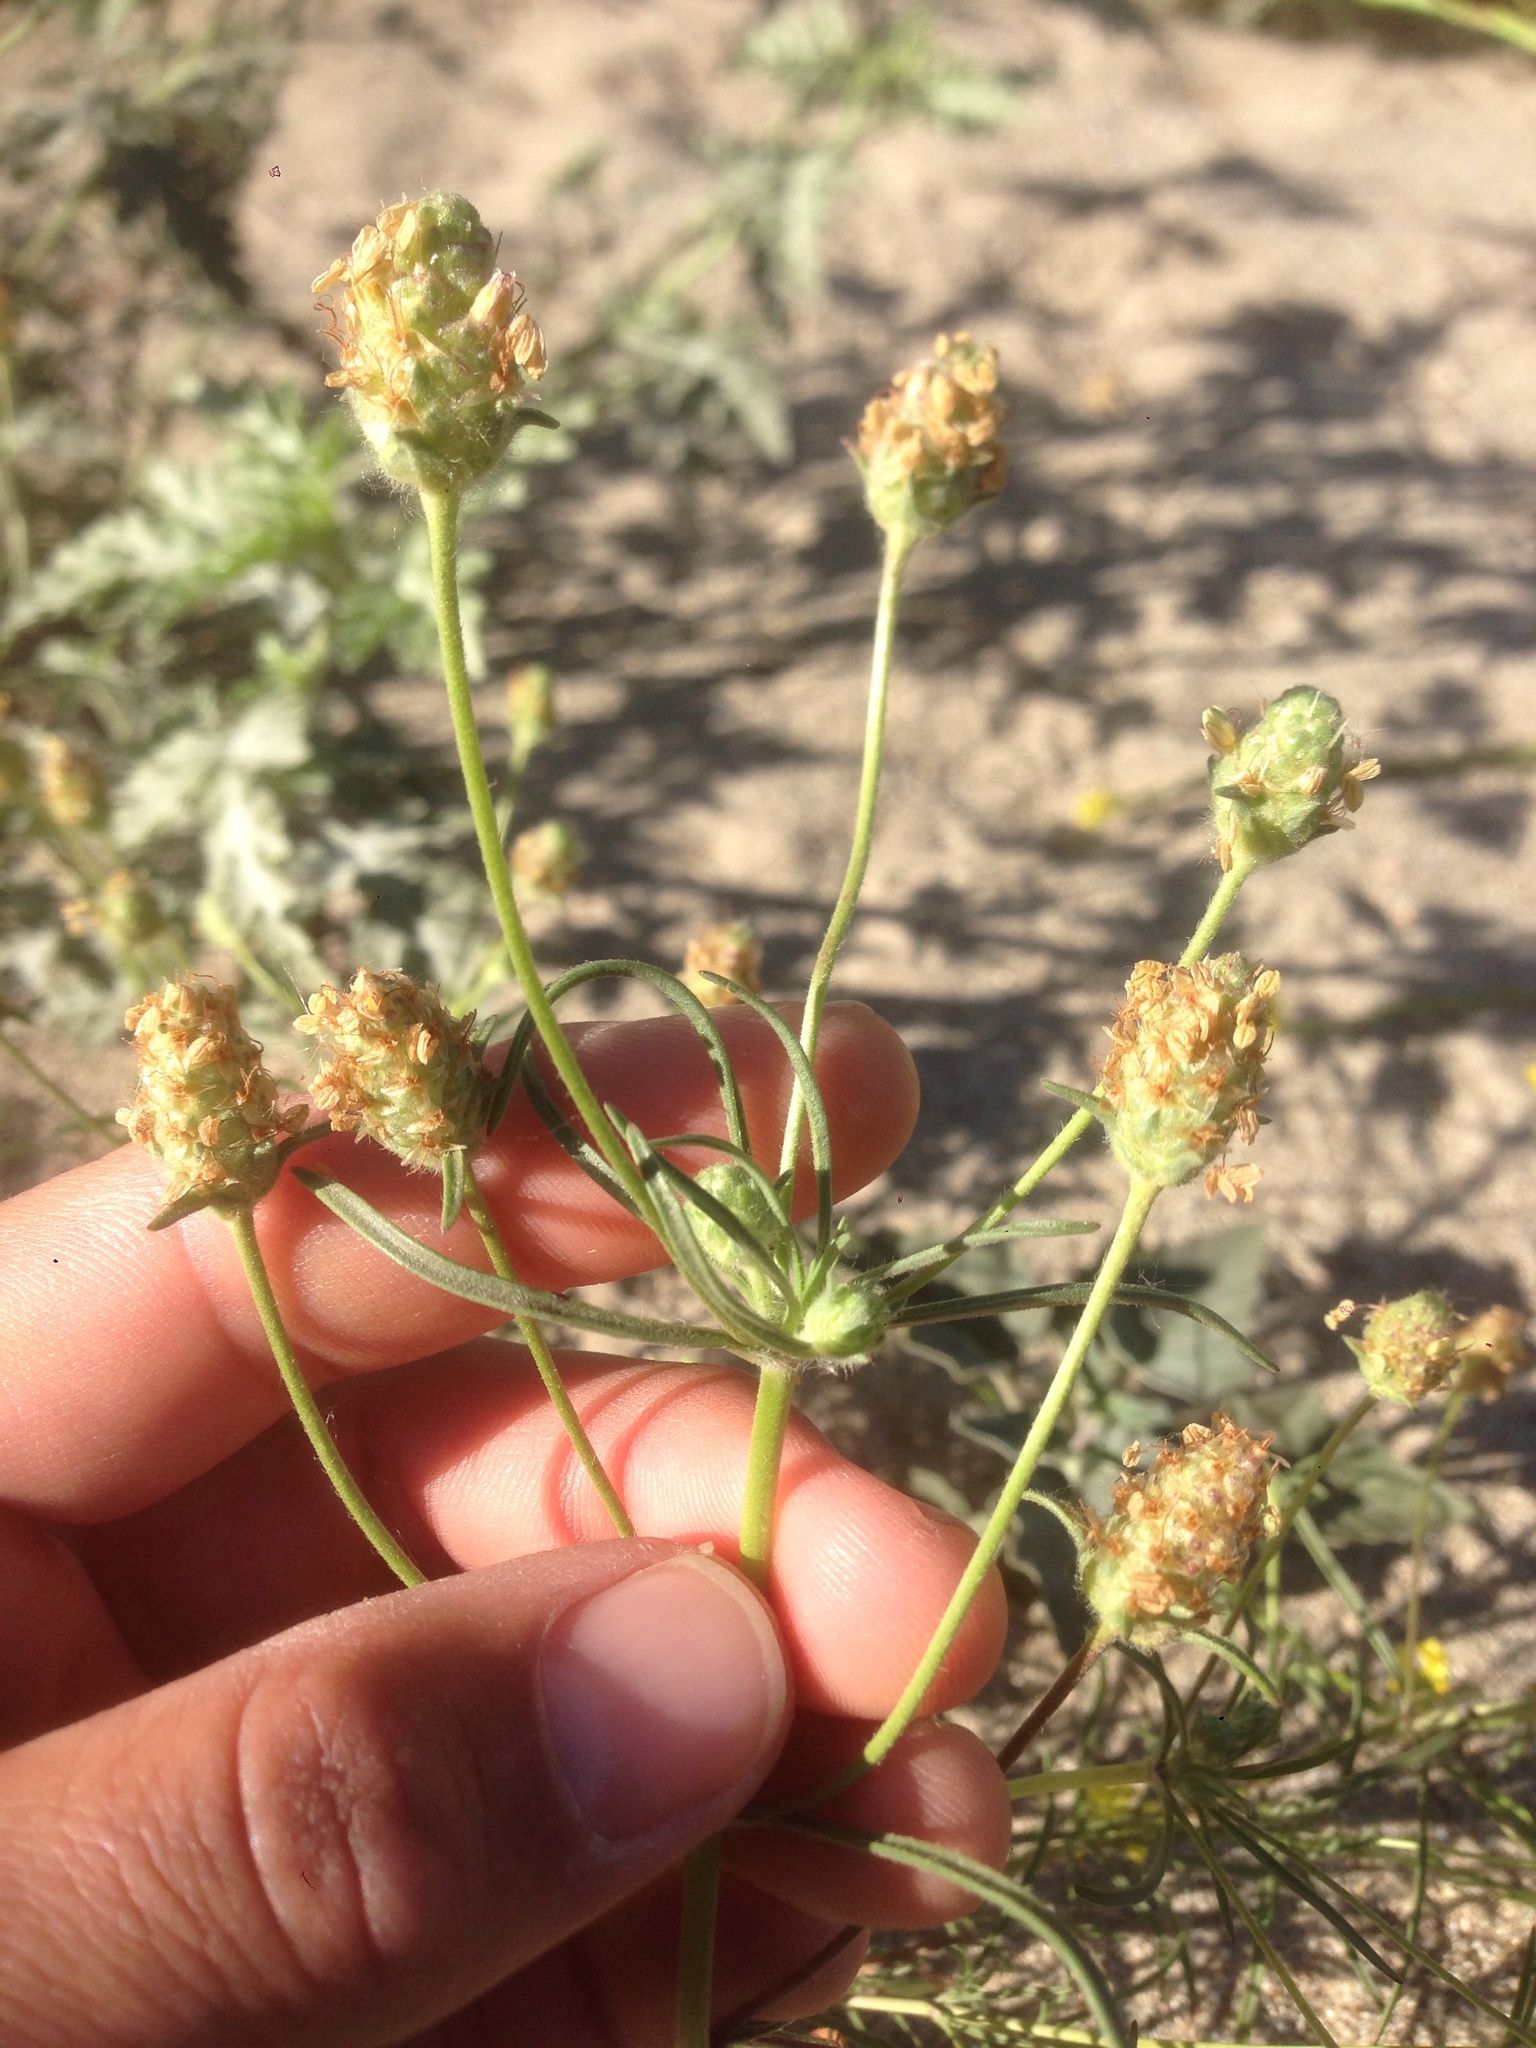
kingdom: Plantae
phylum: Tracheophyta
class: Magnoliopsida
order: Lamiales
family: Plantaginaceae
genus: Plantago
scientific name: Plantago arenaria
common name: Branched plantain
